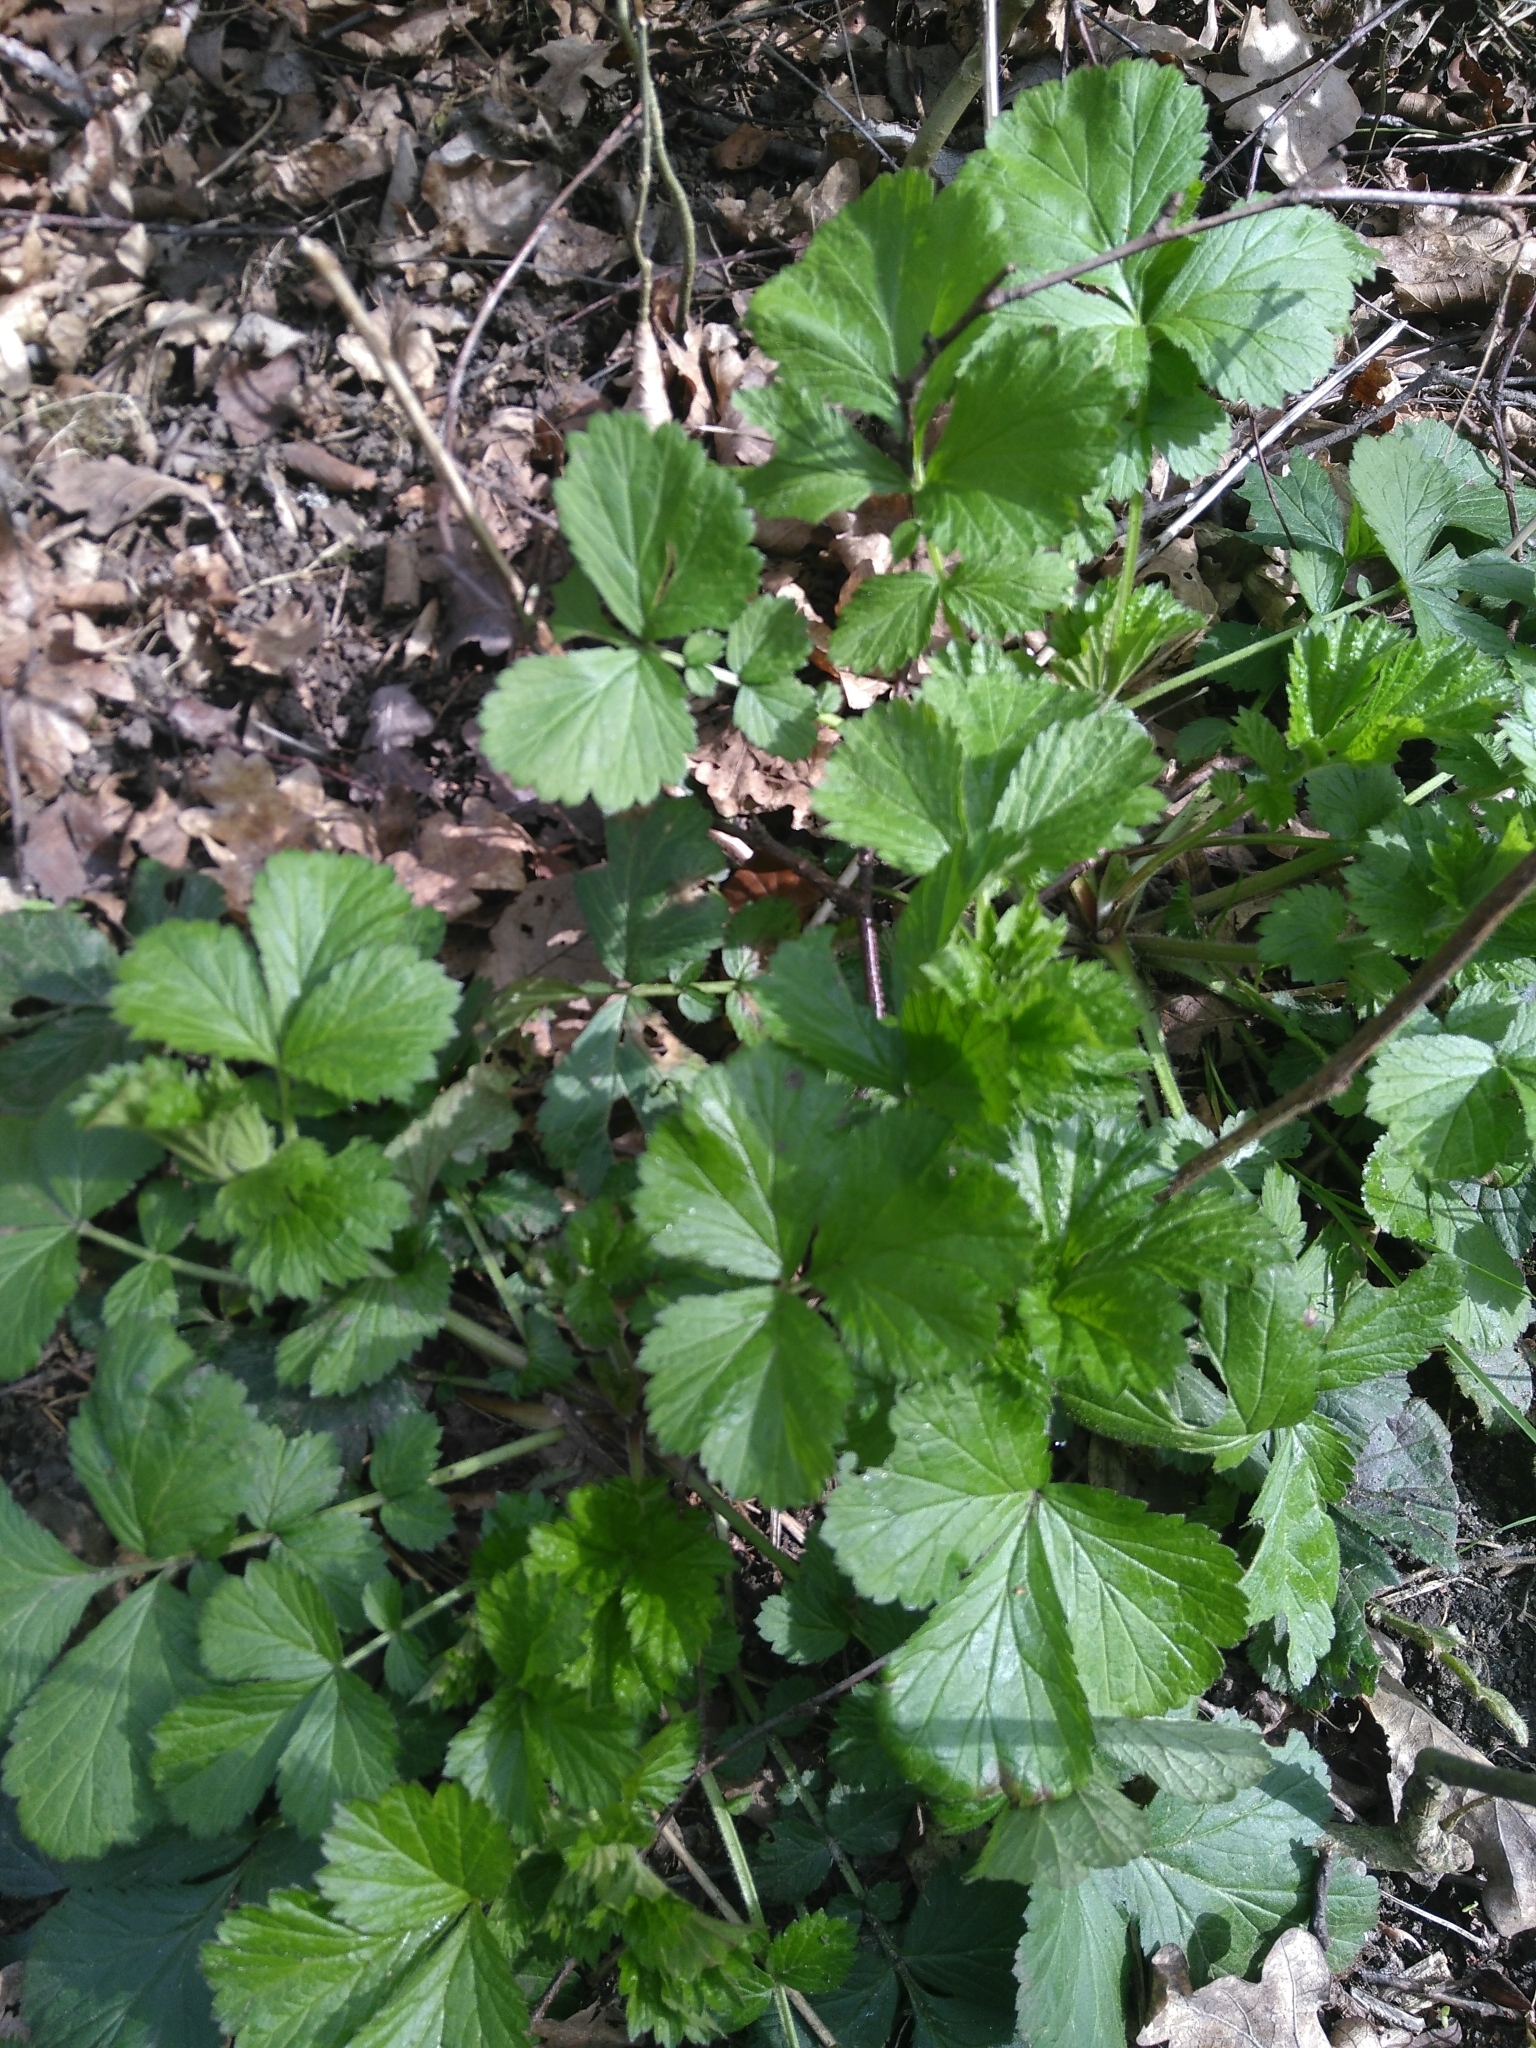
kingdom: Plantae
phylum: Tracheophyta
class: Magnoliopsida
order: Rosales
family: Rosaceae
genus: Geum
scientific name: Geum urbanum
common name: Wood avens
